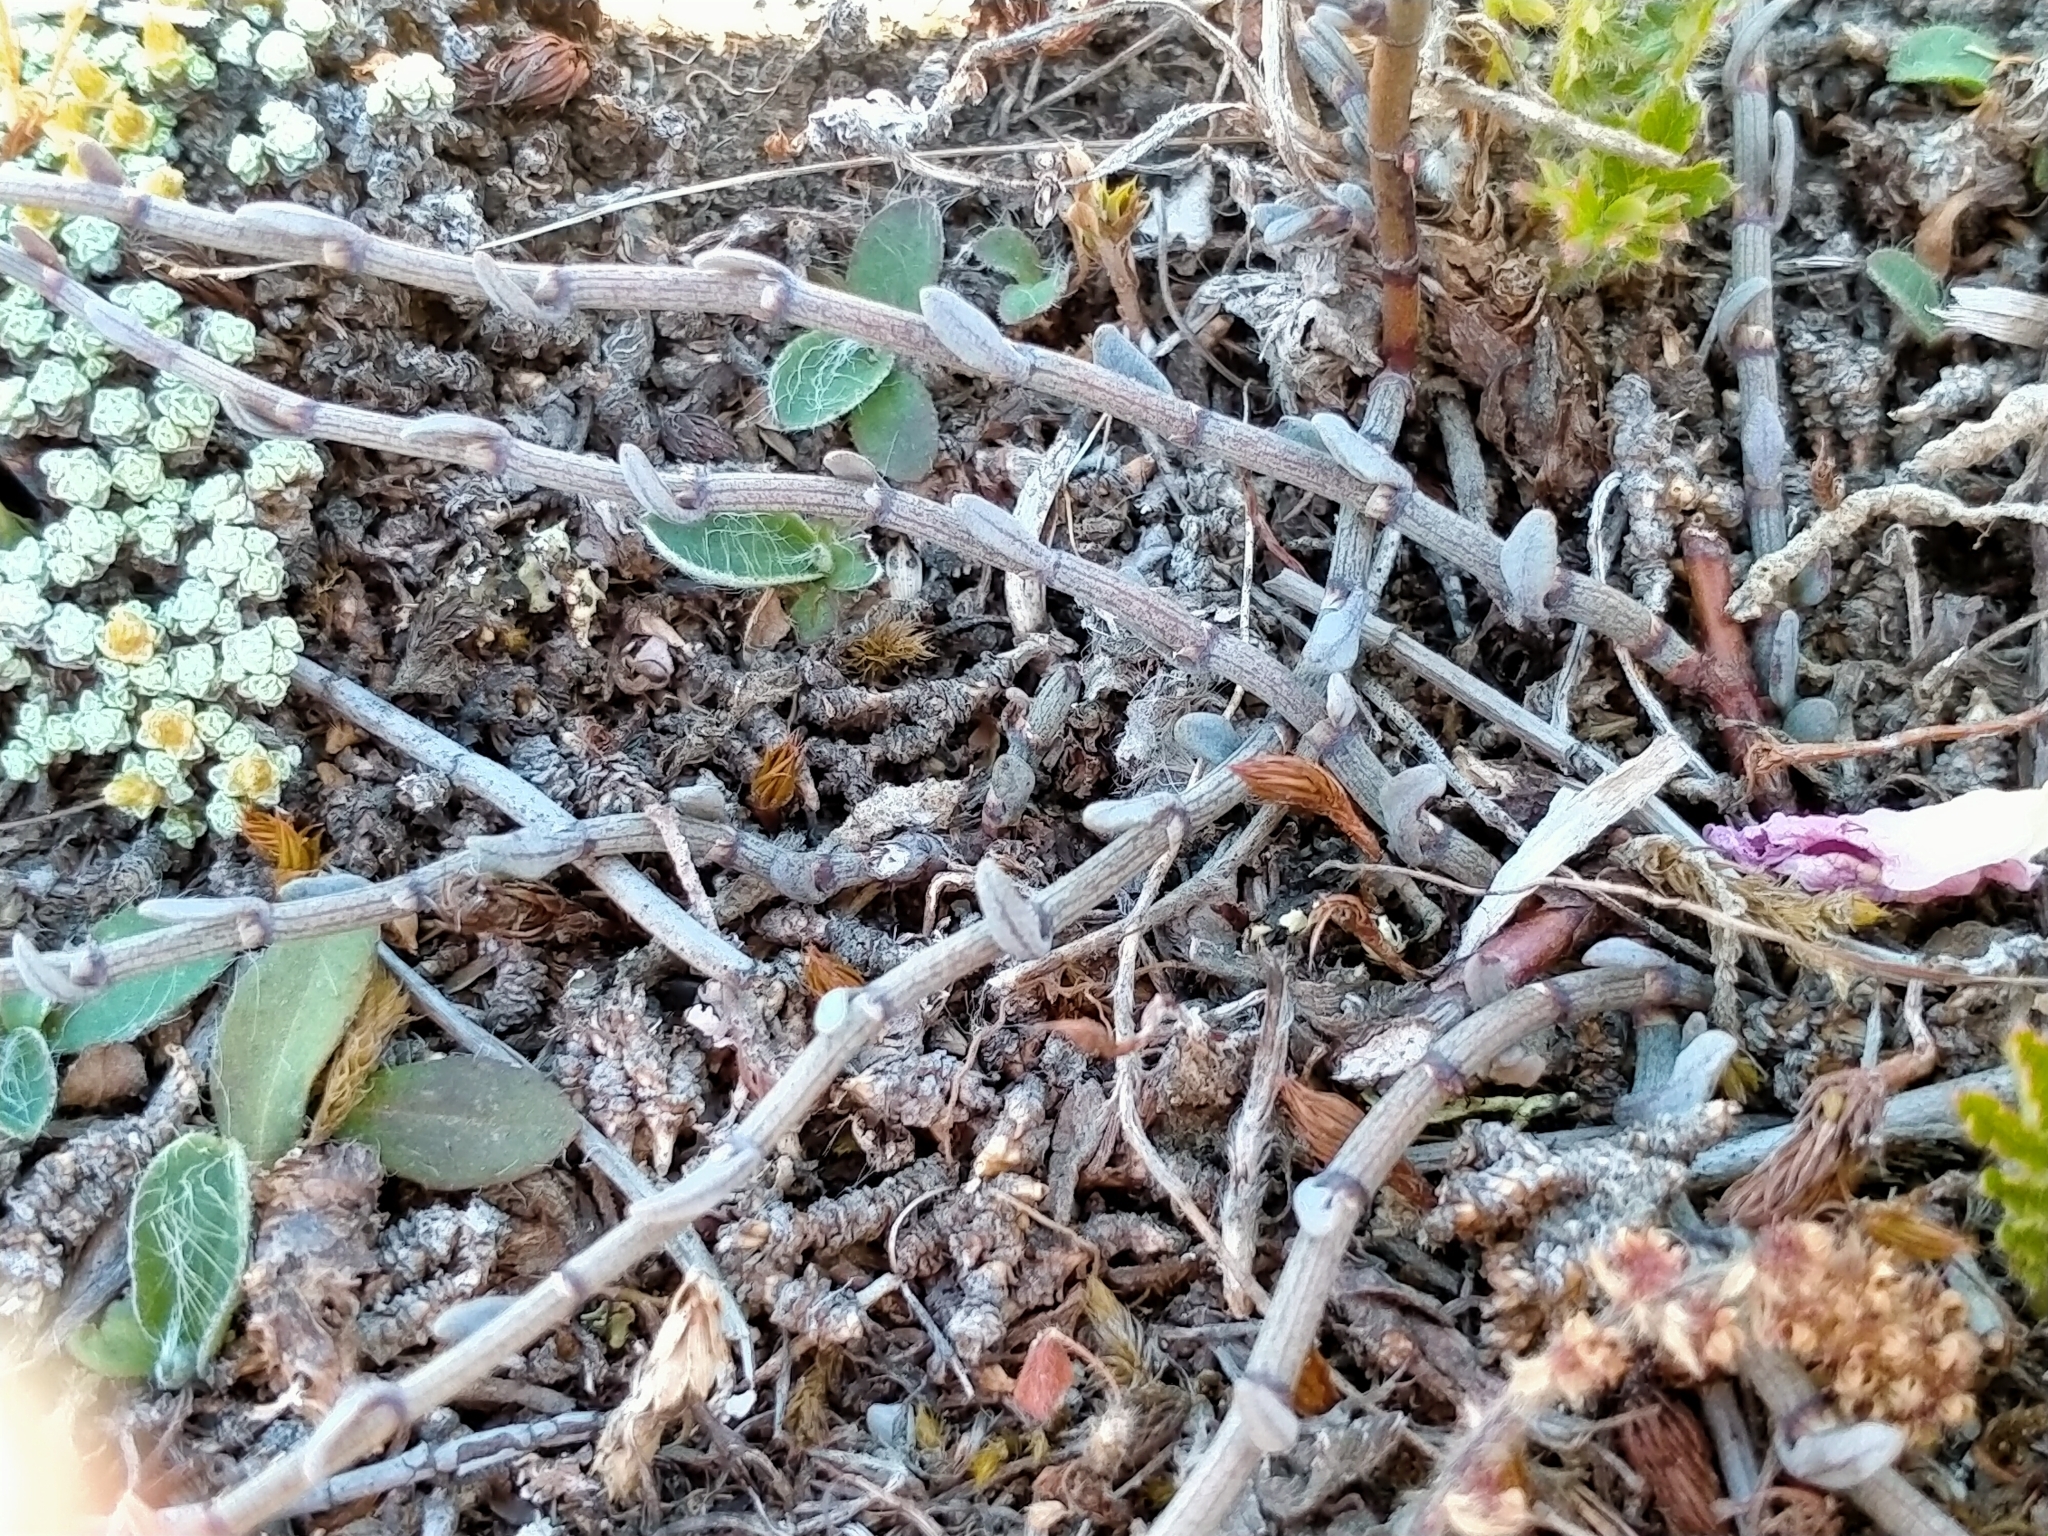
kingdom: Plantae
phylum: Tracheophyta
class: Magnoliopsida
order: Caryophyllales
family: Polygonaceae
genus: Muehlenbeckia
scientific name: Muehlenbeckia ephedroides
